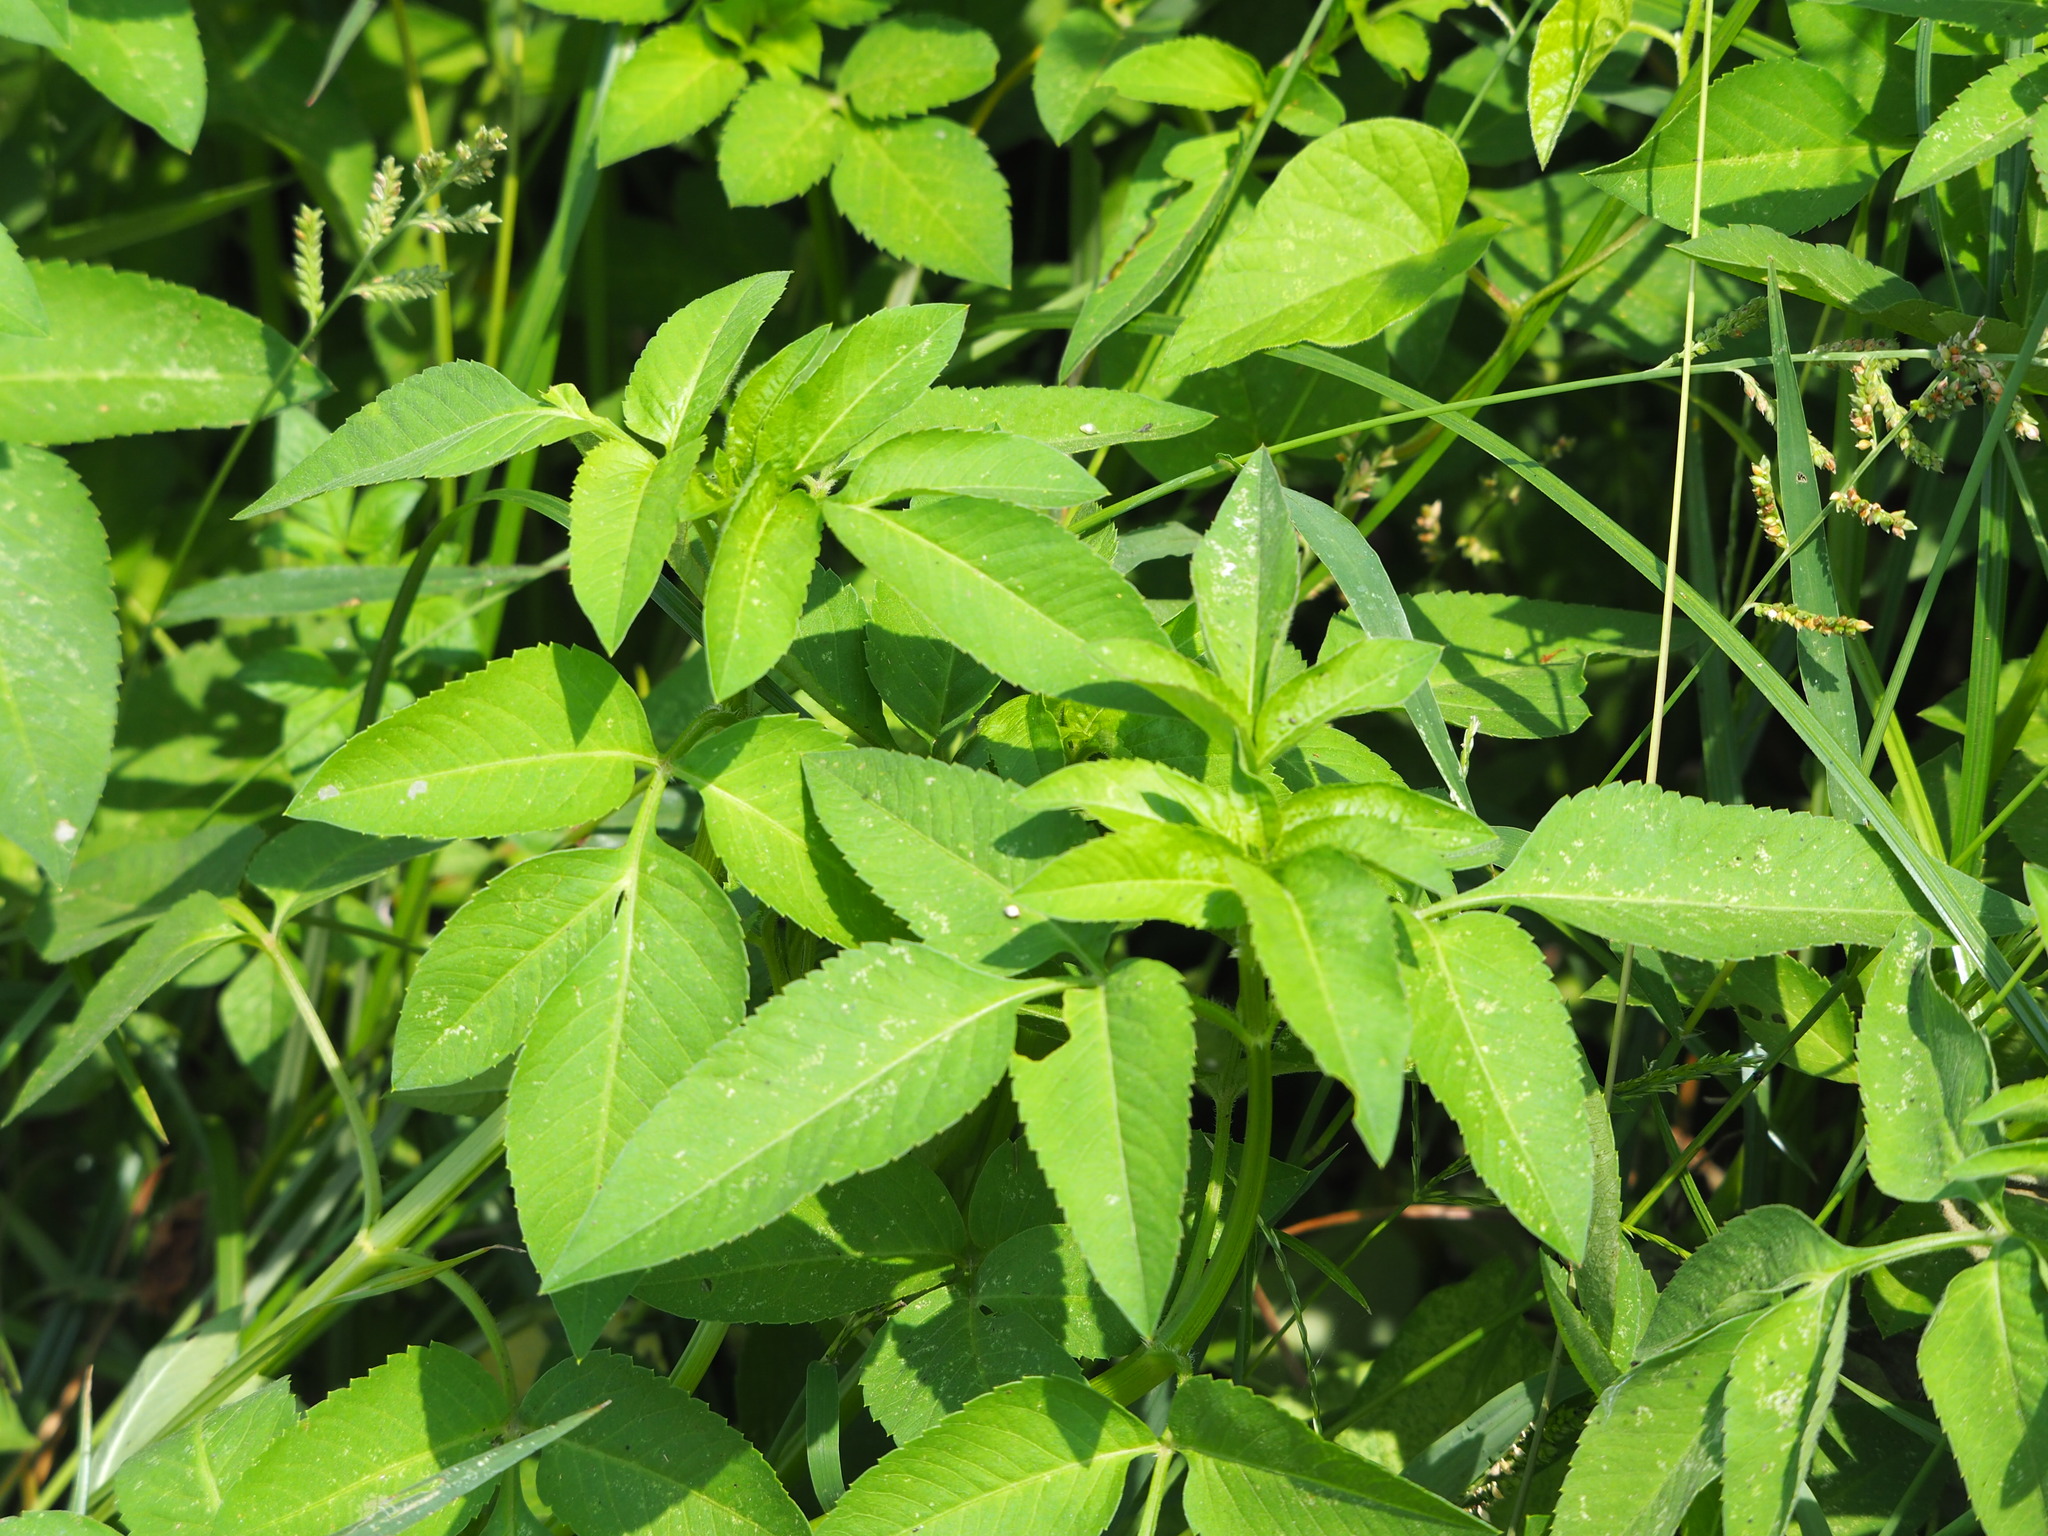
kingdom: Plantae
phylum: Tracheophyta
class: Magnoliopsida
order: Asterales
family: Asteraceae
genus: Bidens
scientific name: Bidens alba
